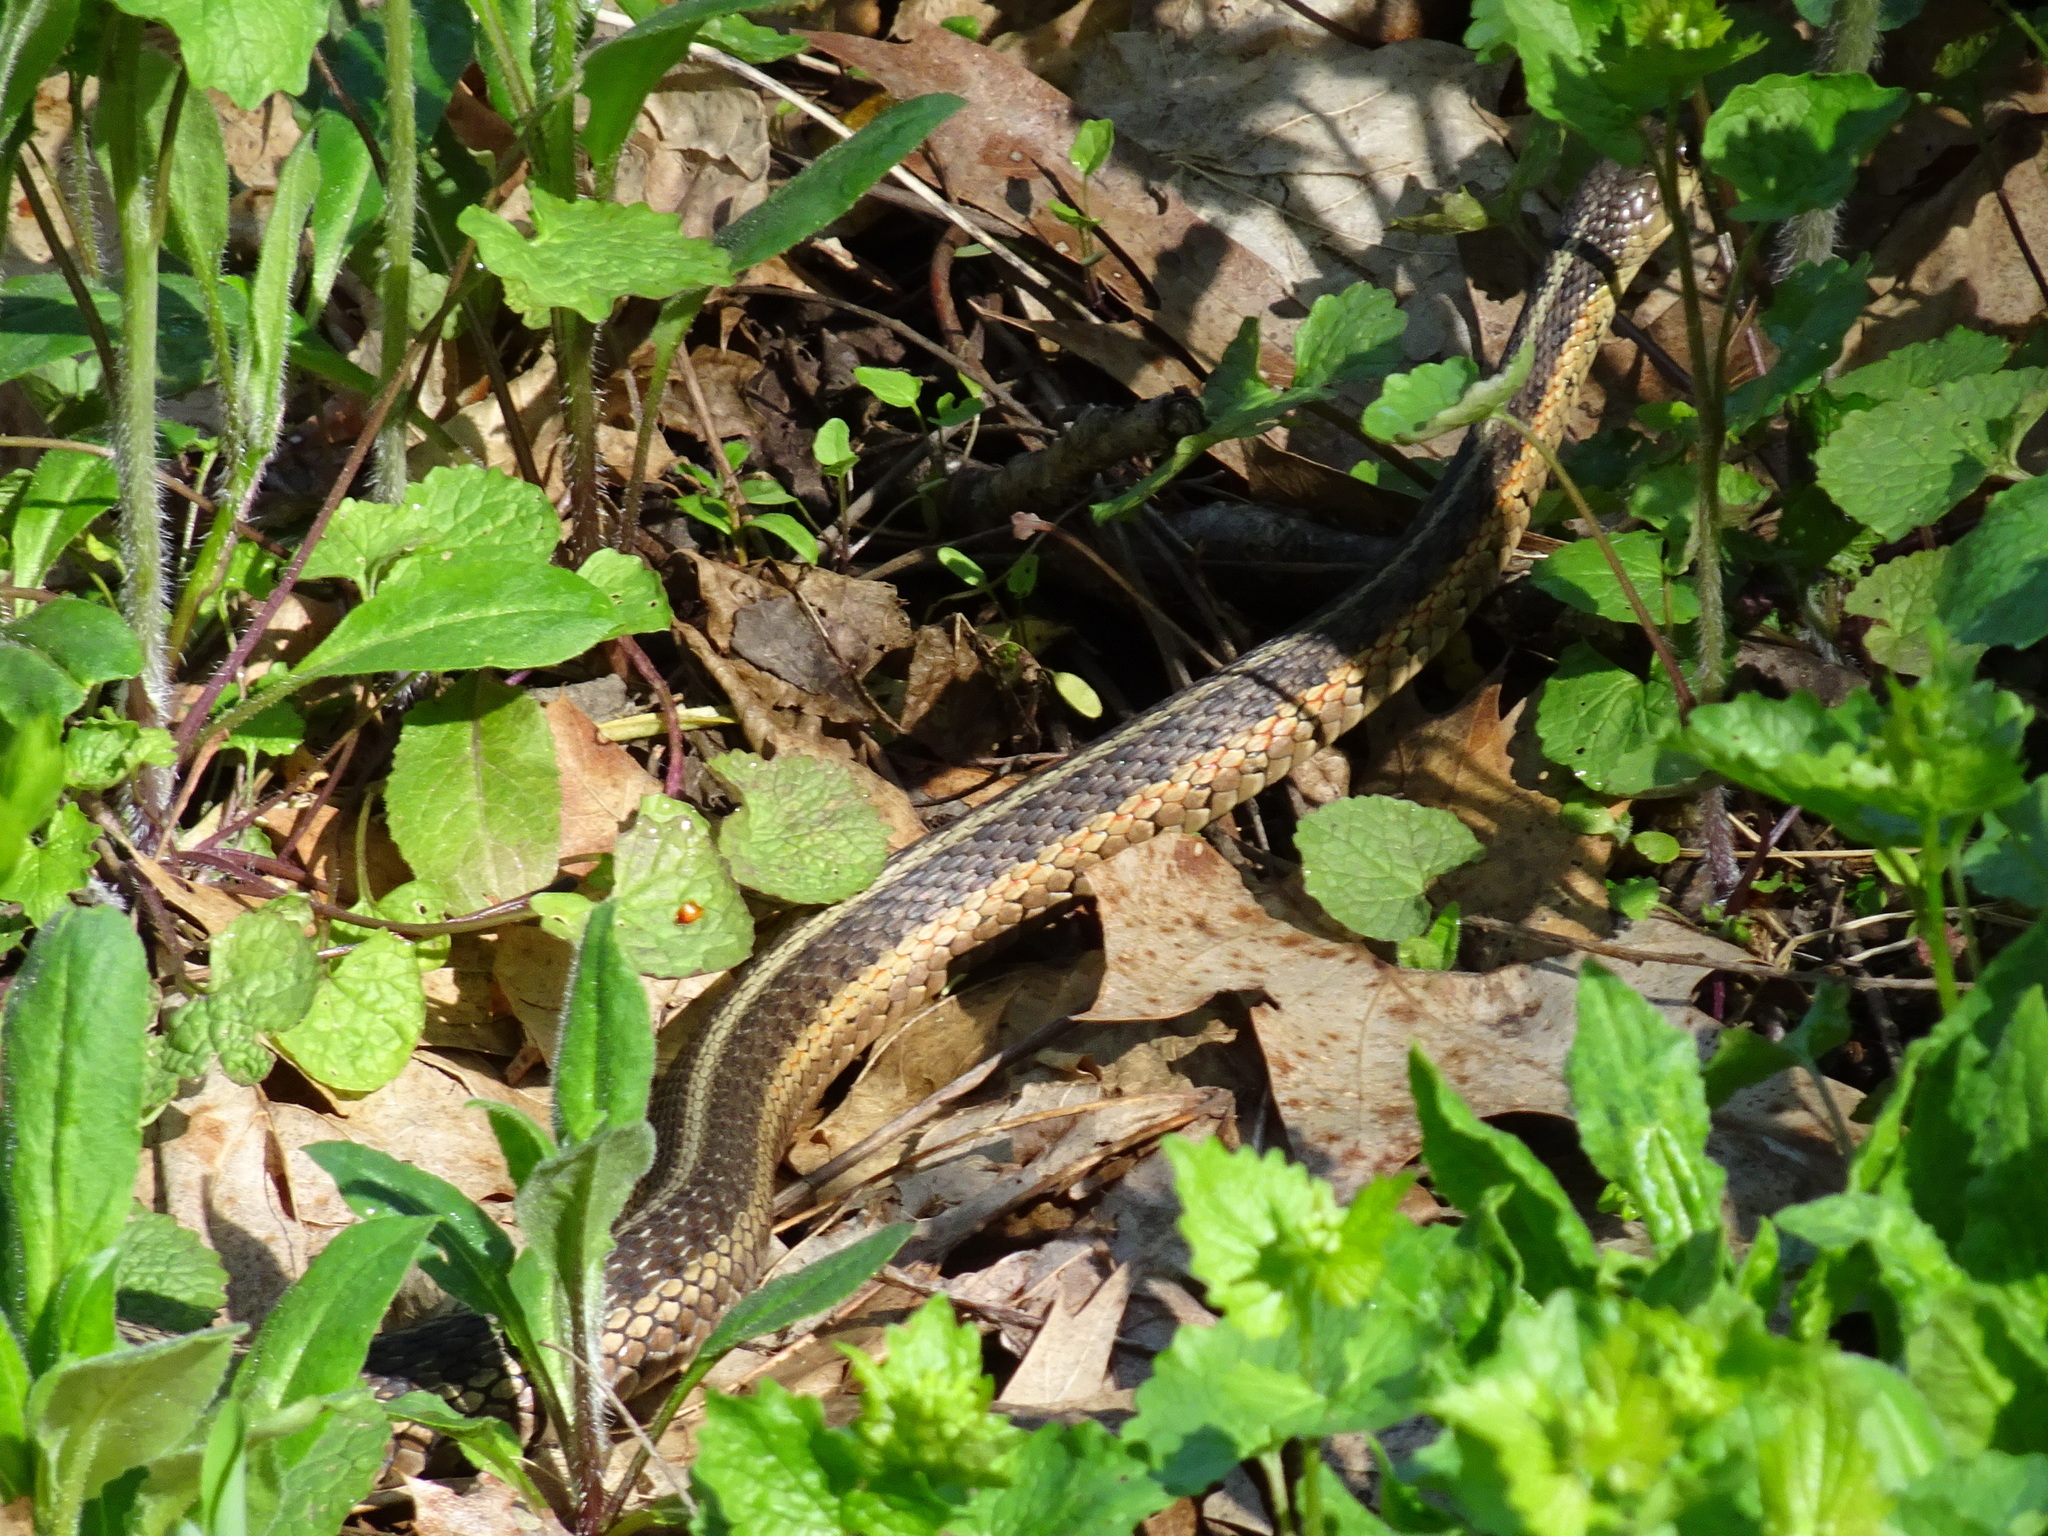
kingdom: Animalia
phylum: Chordata
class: Squamata
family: Colubridae
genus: Thamnophis
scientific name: Thamnophis sirtalis
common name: Common garter snake
